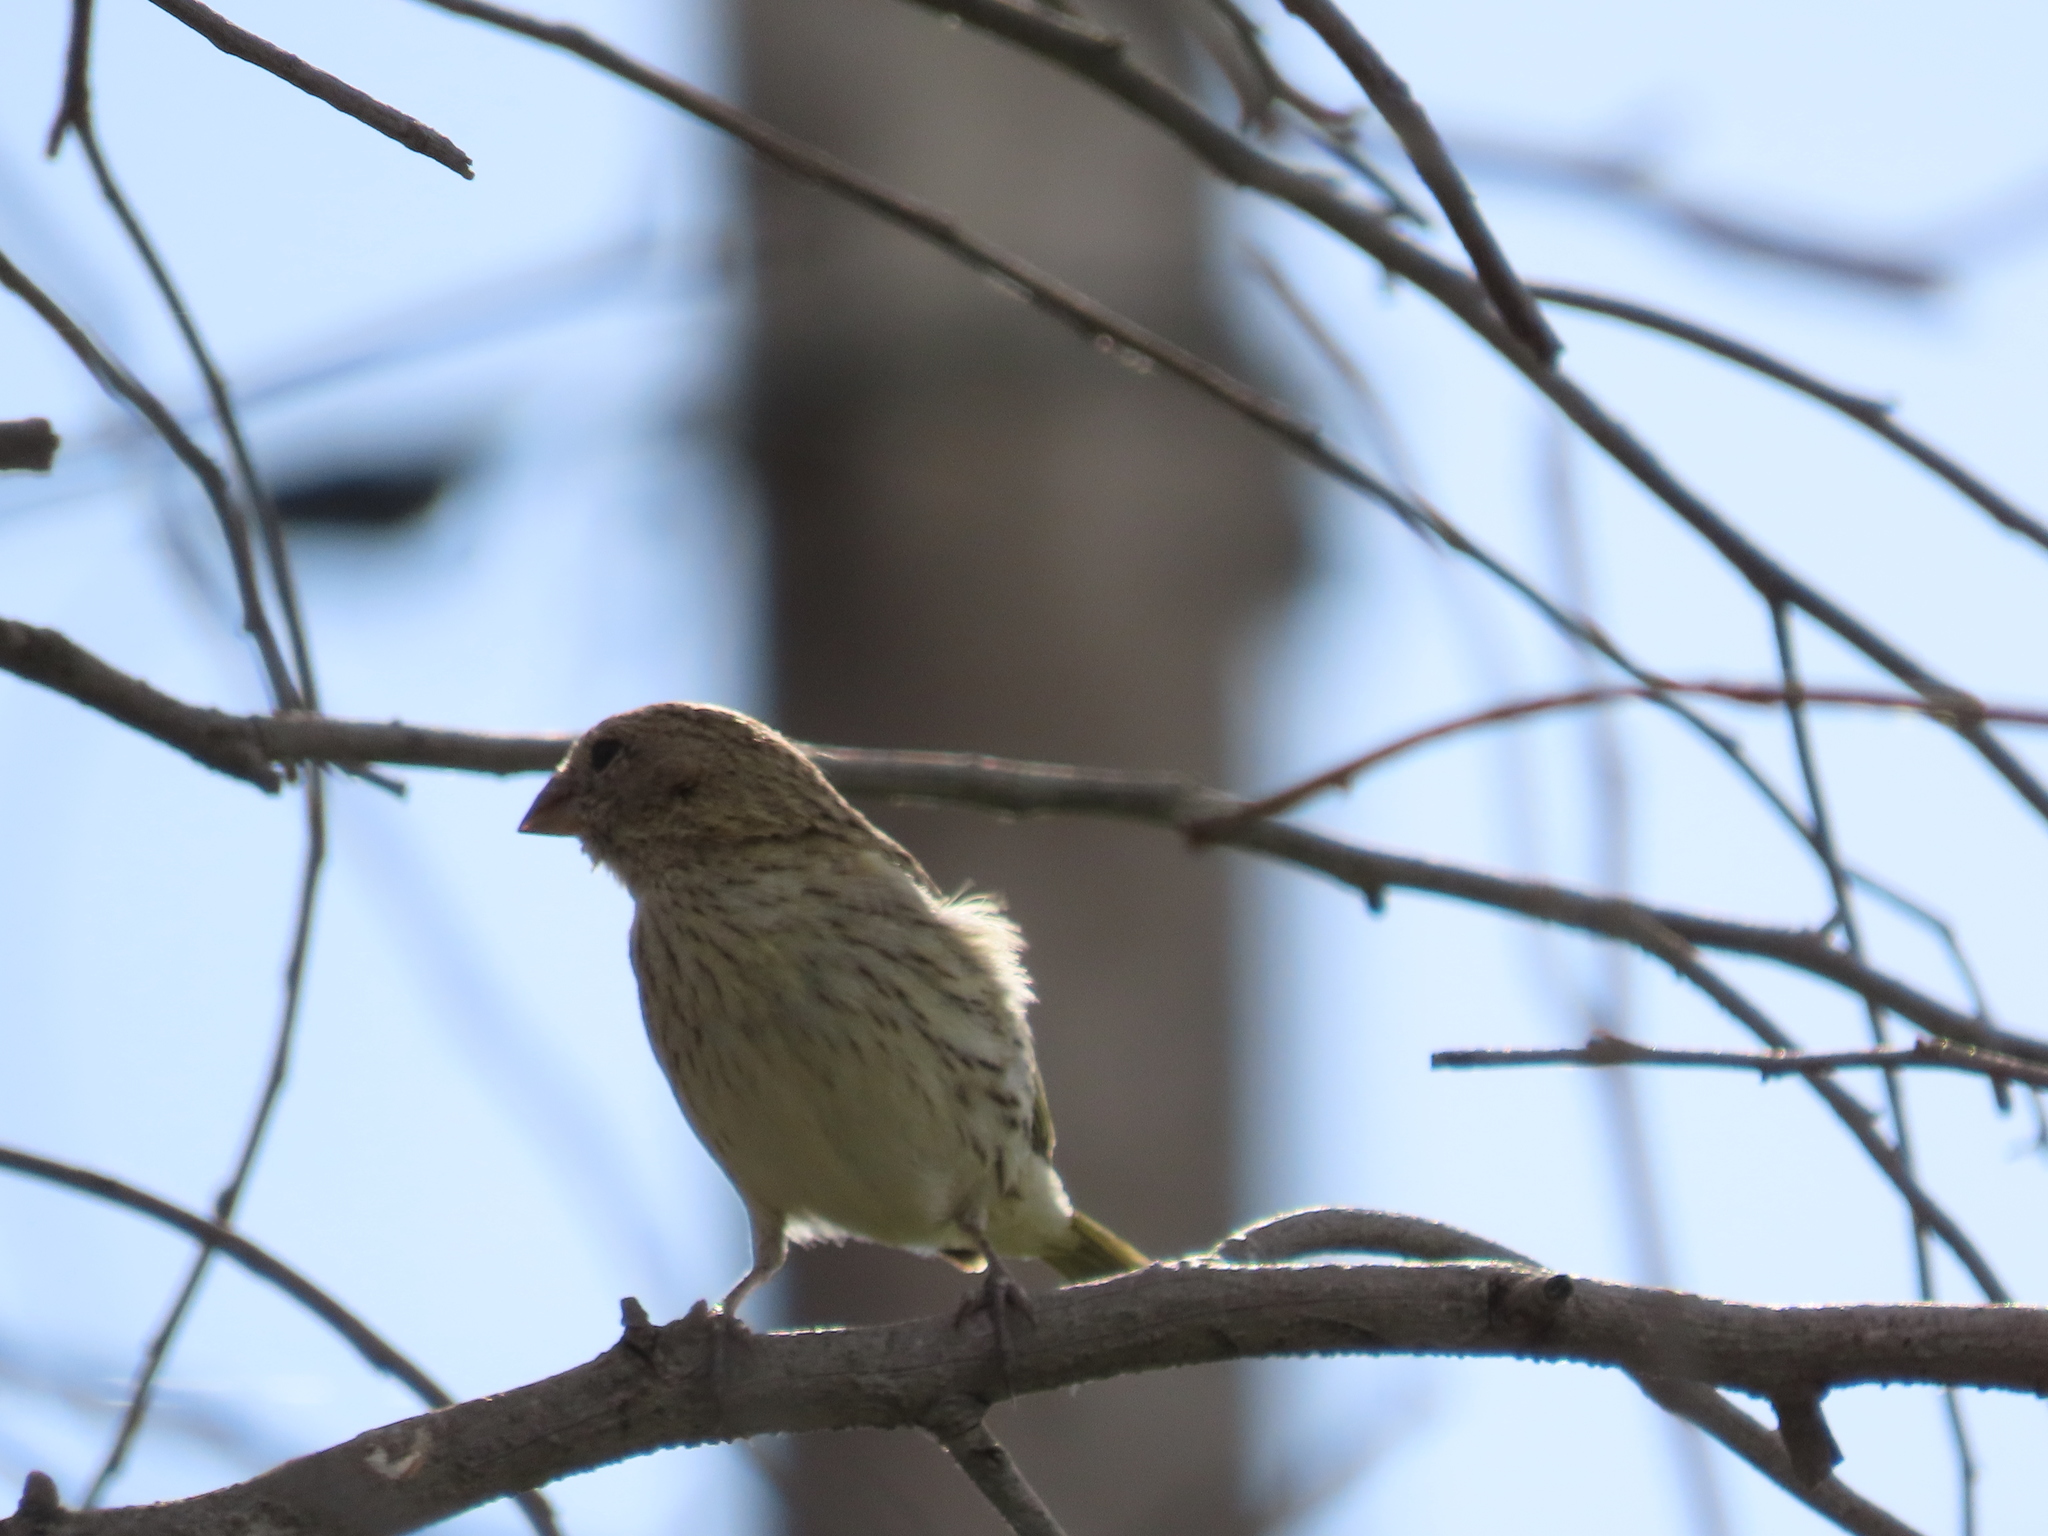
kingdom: Animalia
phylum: Chordata
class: Aves
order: Passeriformes
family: Thraupidae
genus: Sicalis
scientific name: Sicalis flaveola
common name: Saffron finch
